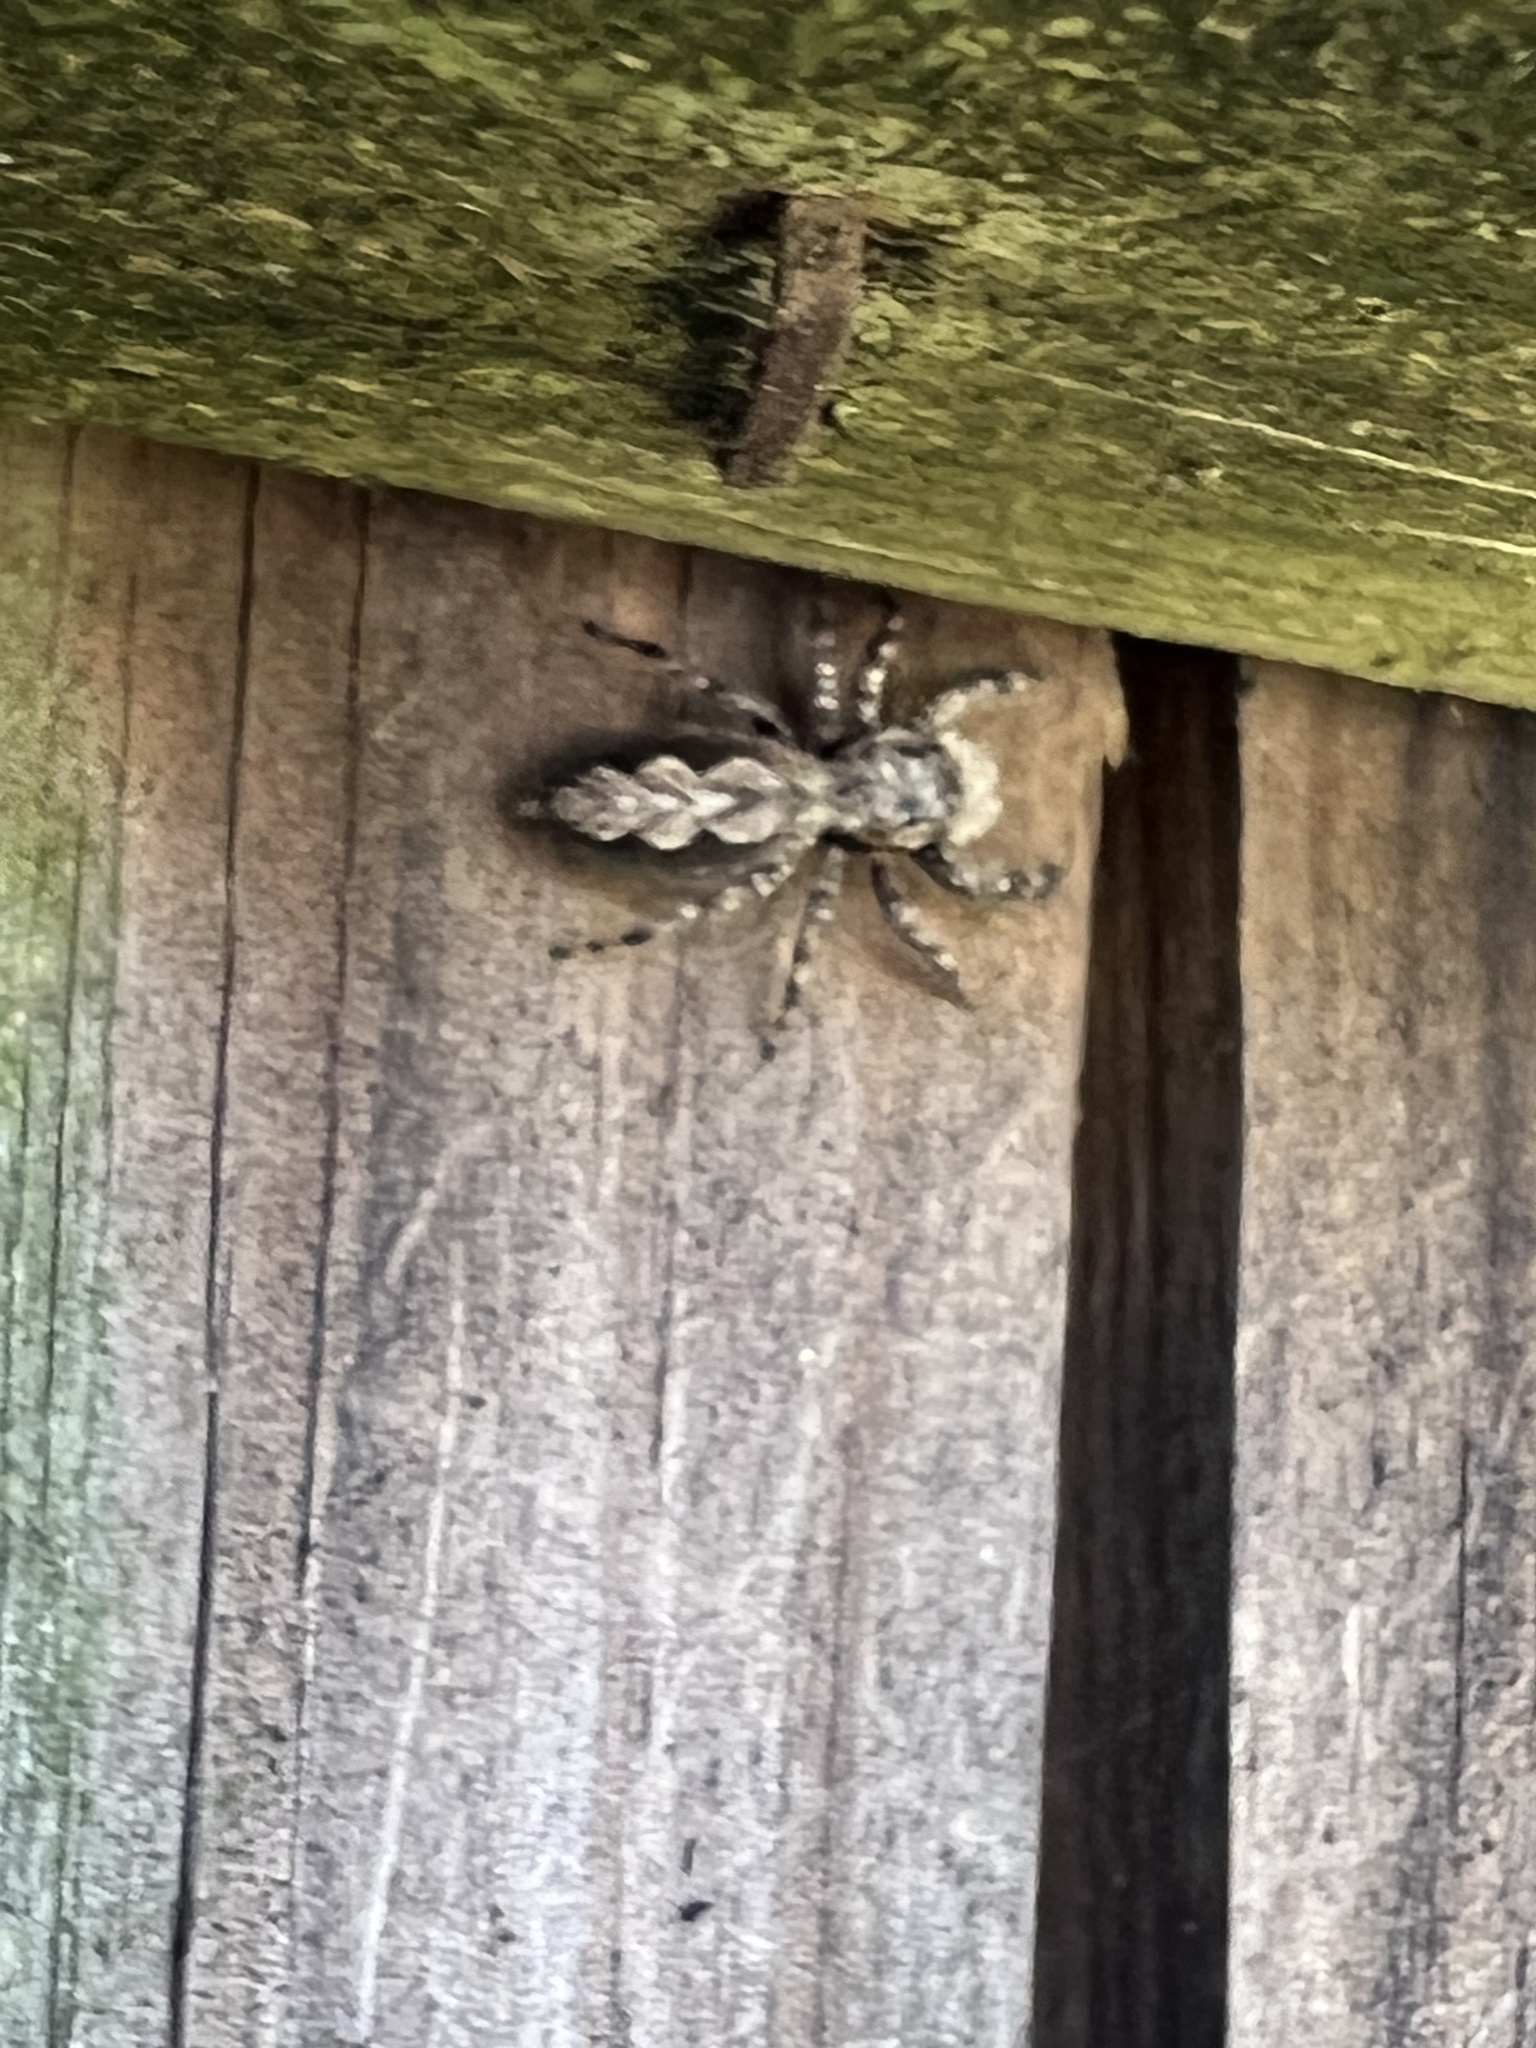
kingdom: Animalia
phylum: Arthropoda
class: Arachnida
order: Araneae
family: Salticidae
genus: Platycryptus
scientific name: Platycryptus undatus
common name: Tan jumping spider
